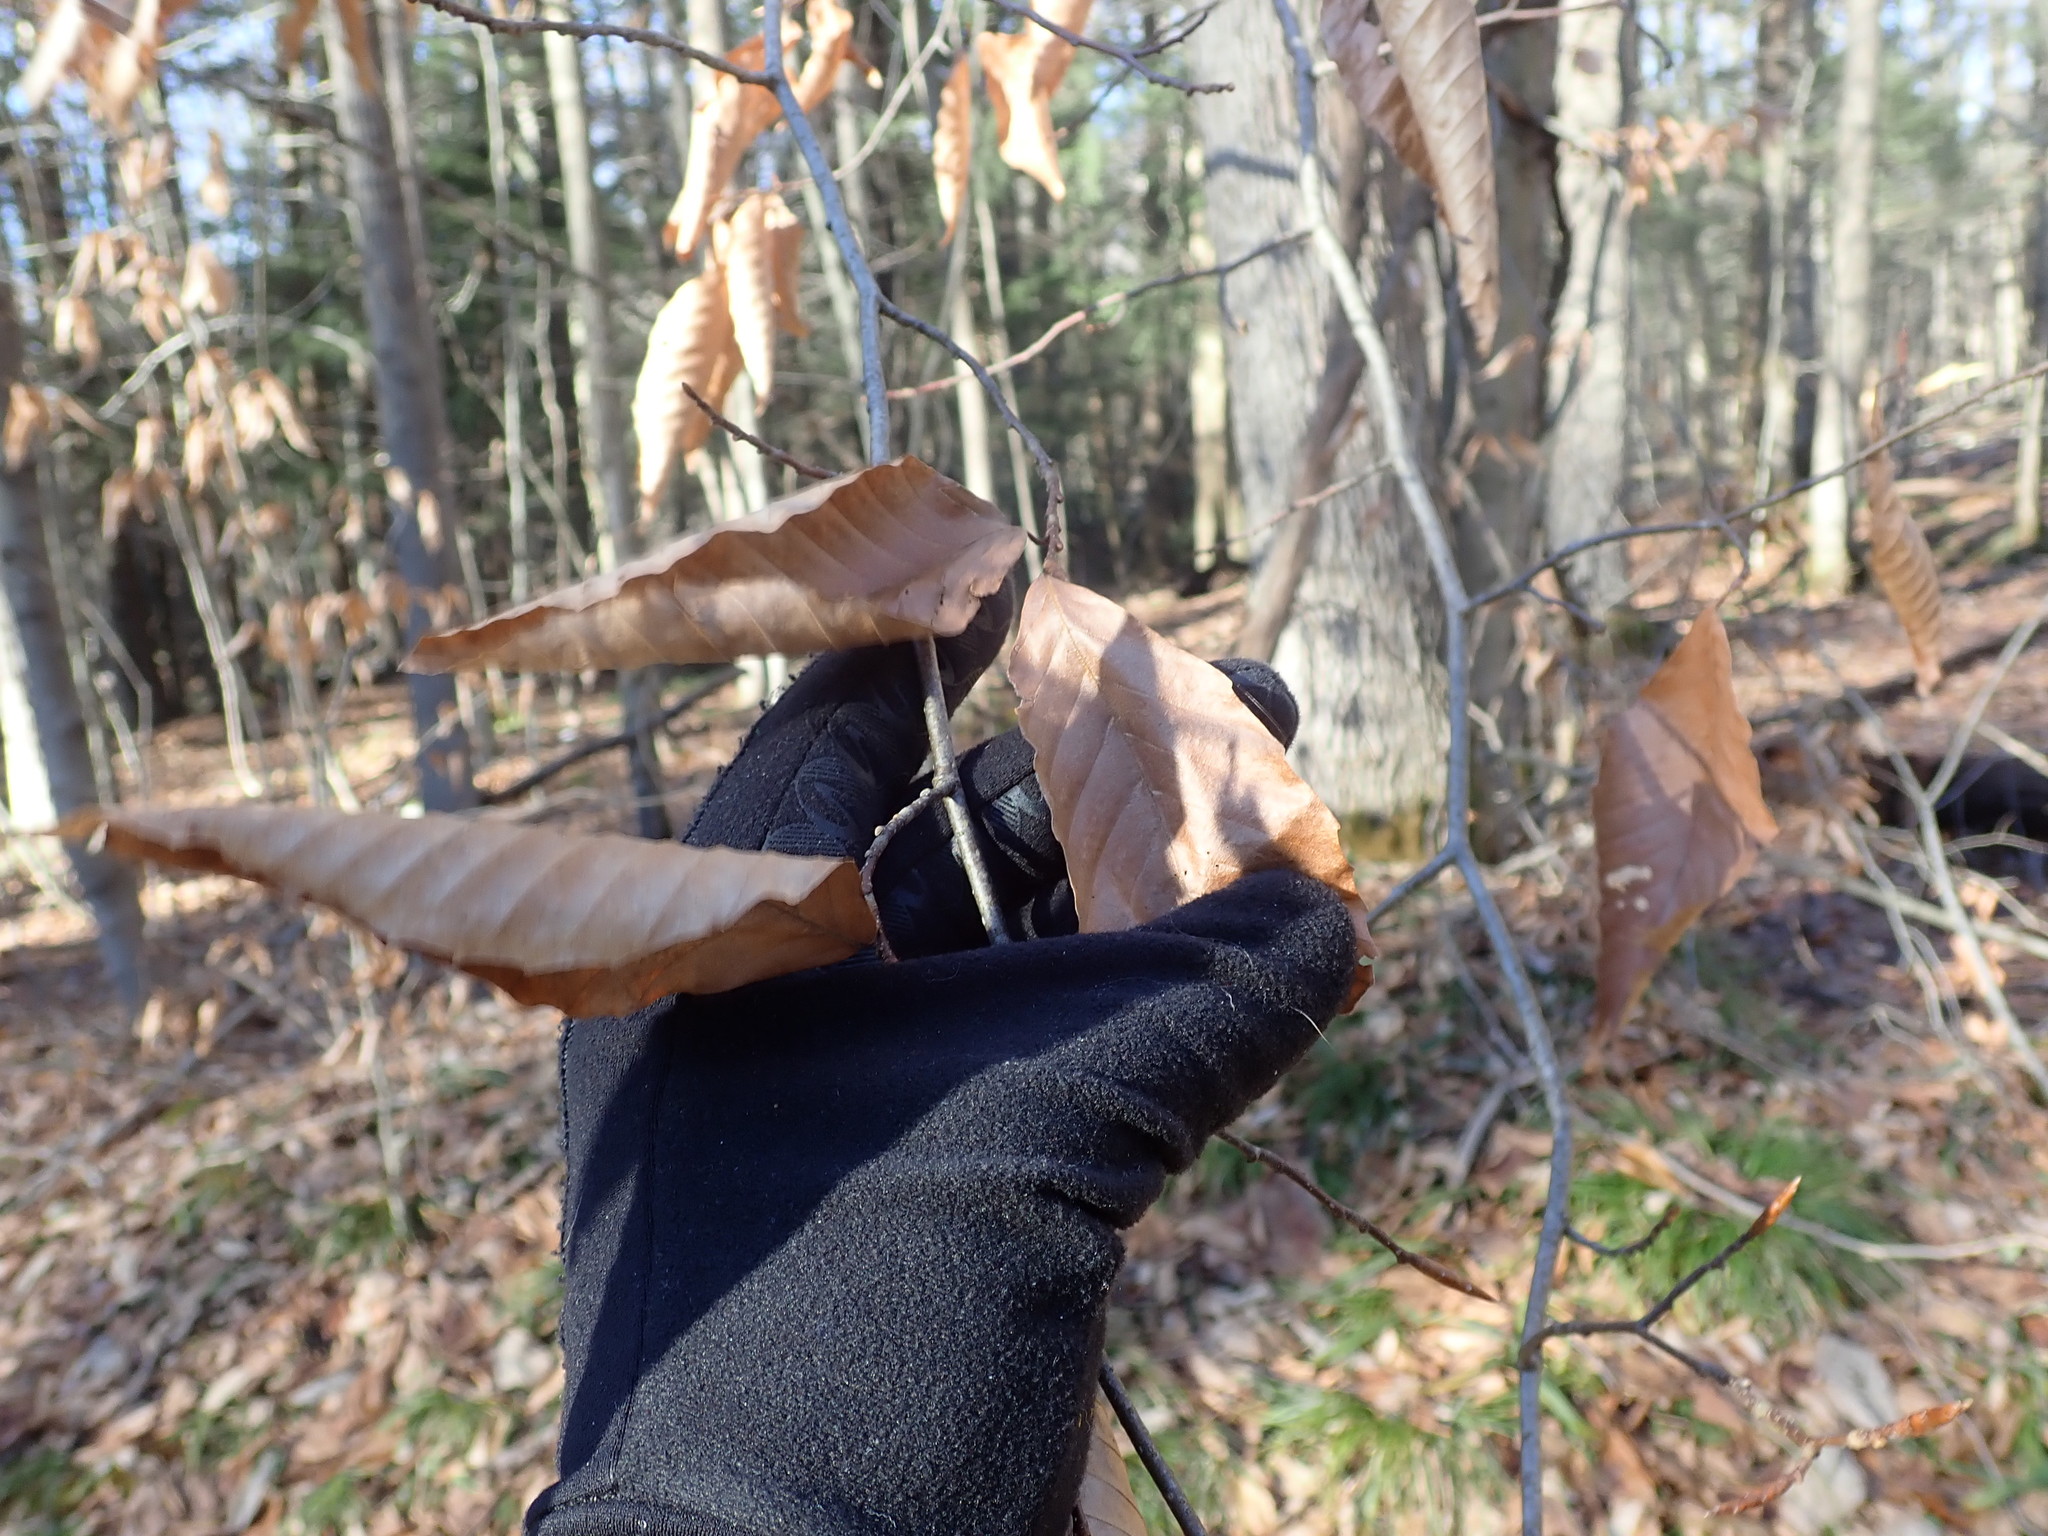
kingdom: Plantae
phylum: Tracheophyta
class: Magnoliopsida
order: Fagales
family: Fagaceae
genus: Fagus
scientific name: Fagus grandifolia
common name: American beech
